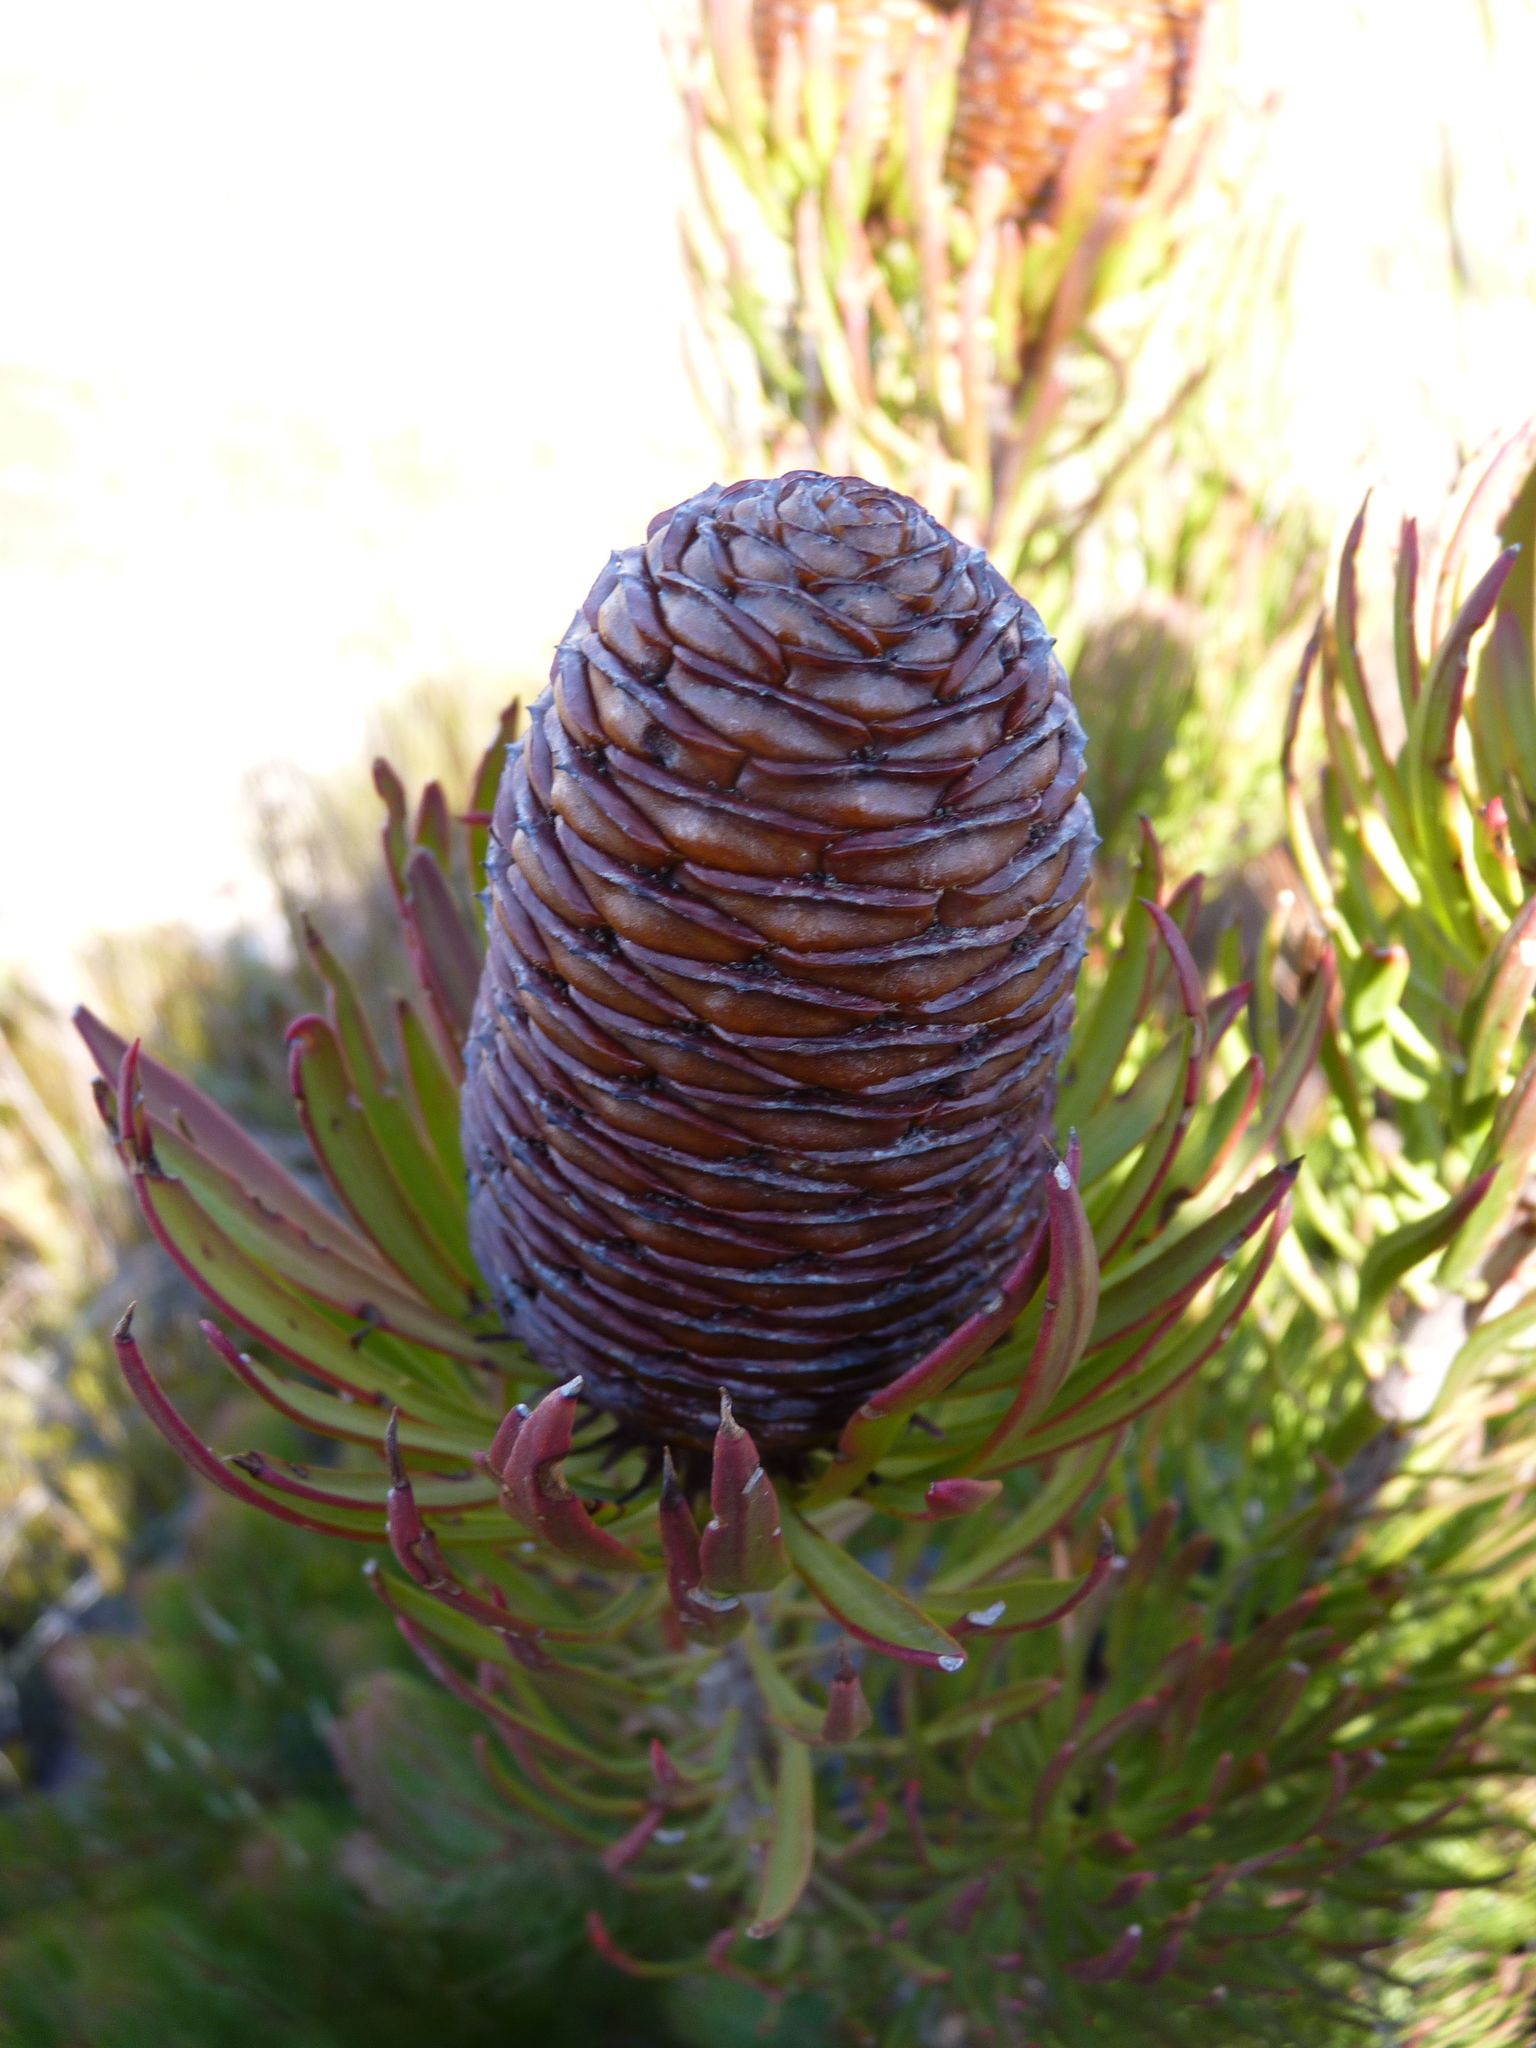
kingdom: Plantae
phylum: Tracheophyta
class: Magnoliopsida
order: Proteales
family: Proteaceae
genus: Leucadendron
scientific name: Leucadendron comosum
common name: Ridge-cone conebush
